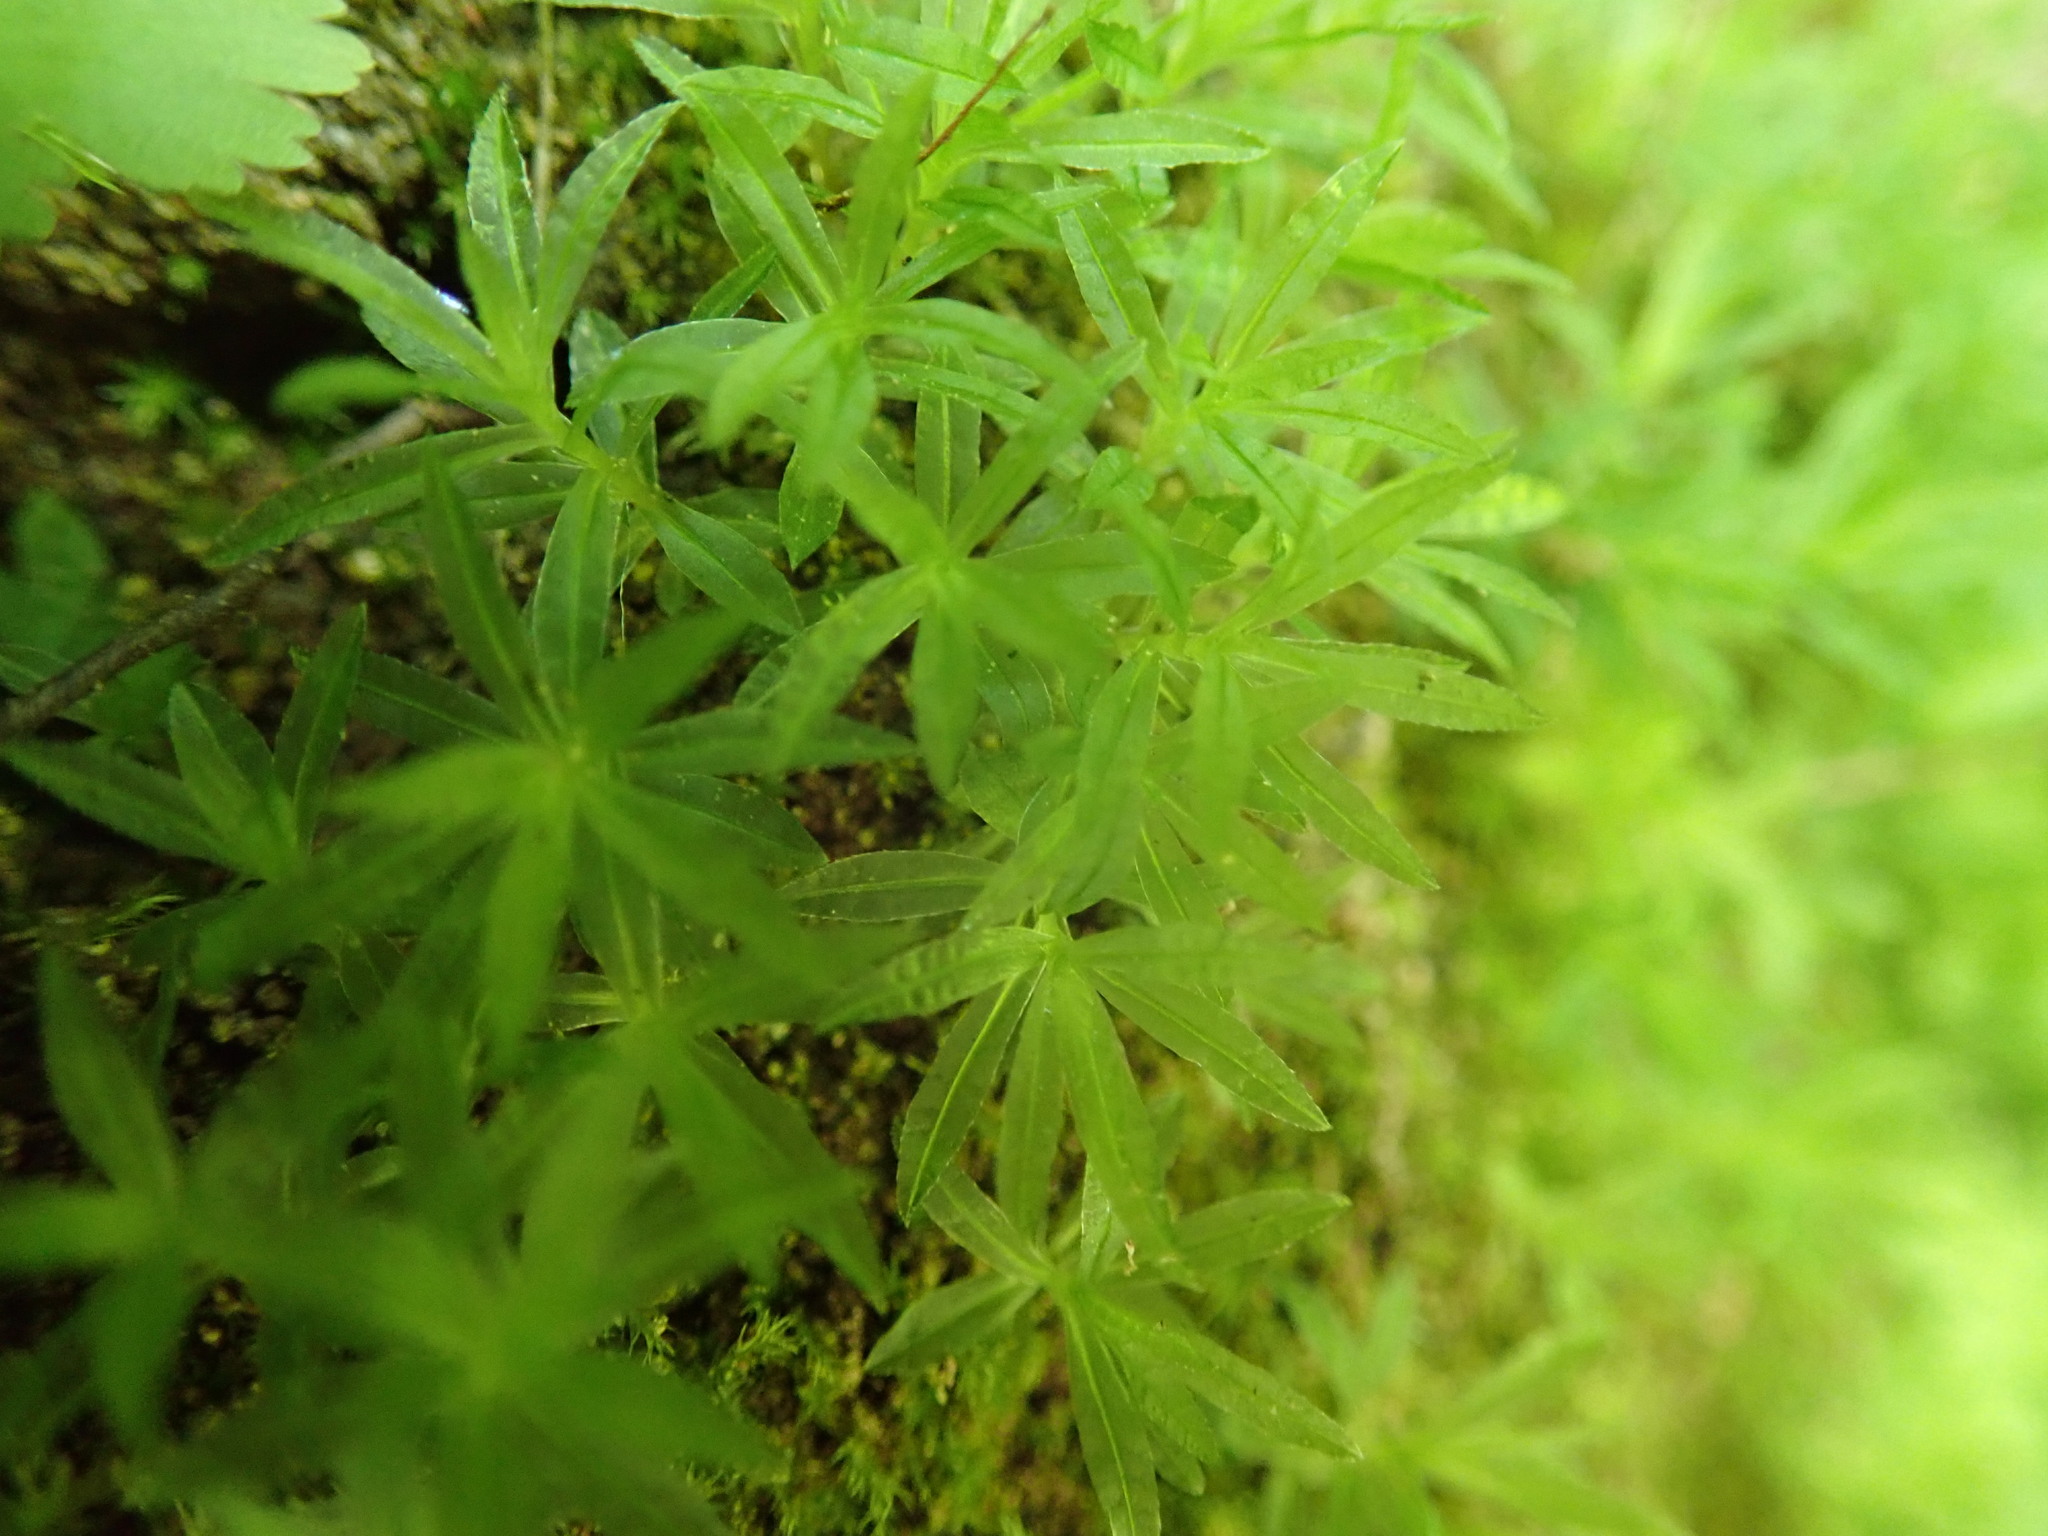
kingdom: Plantae
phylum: Bryophyta
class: Polytrichopsida
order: Polytrichales
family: Polytrichaceae
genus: Atrichum
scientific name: Atrichum selwynii
